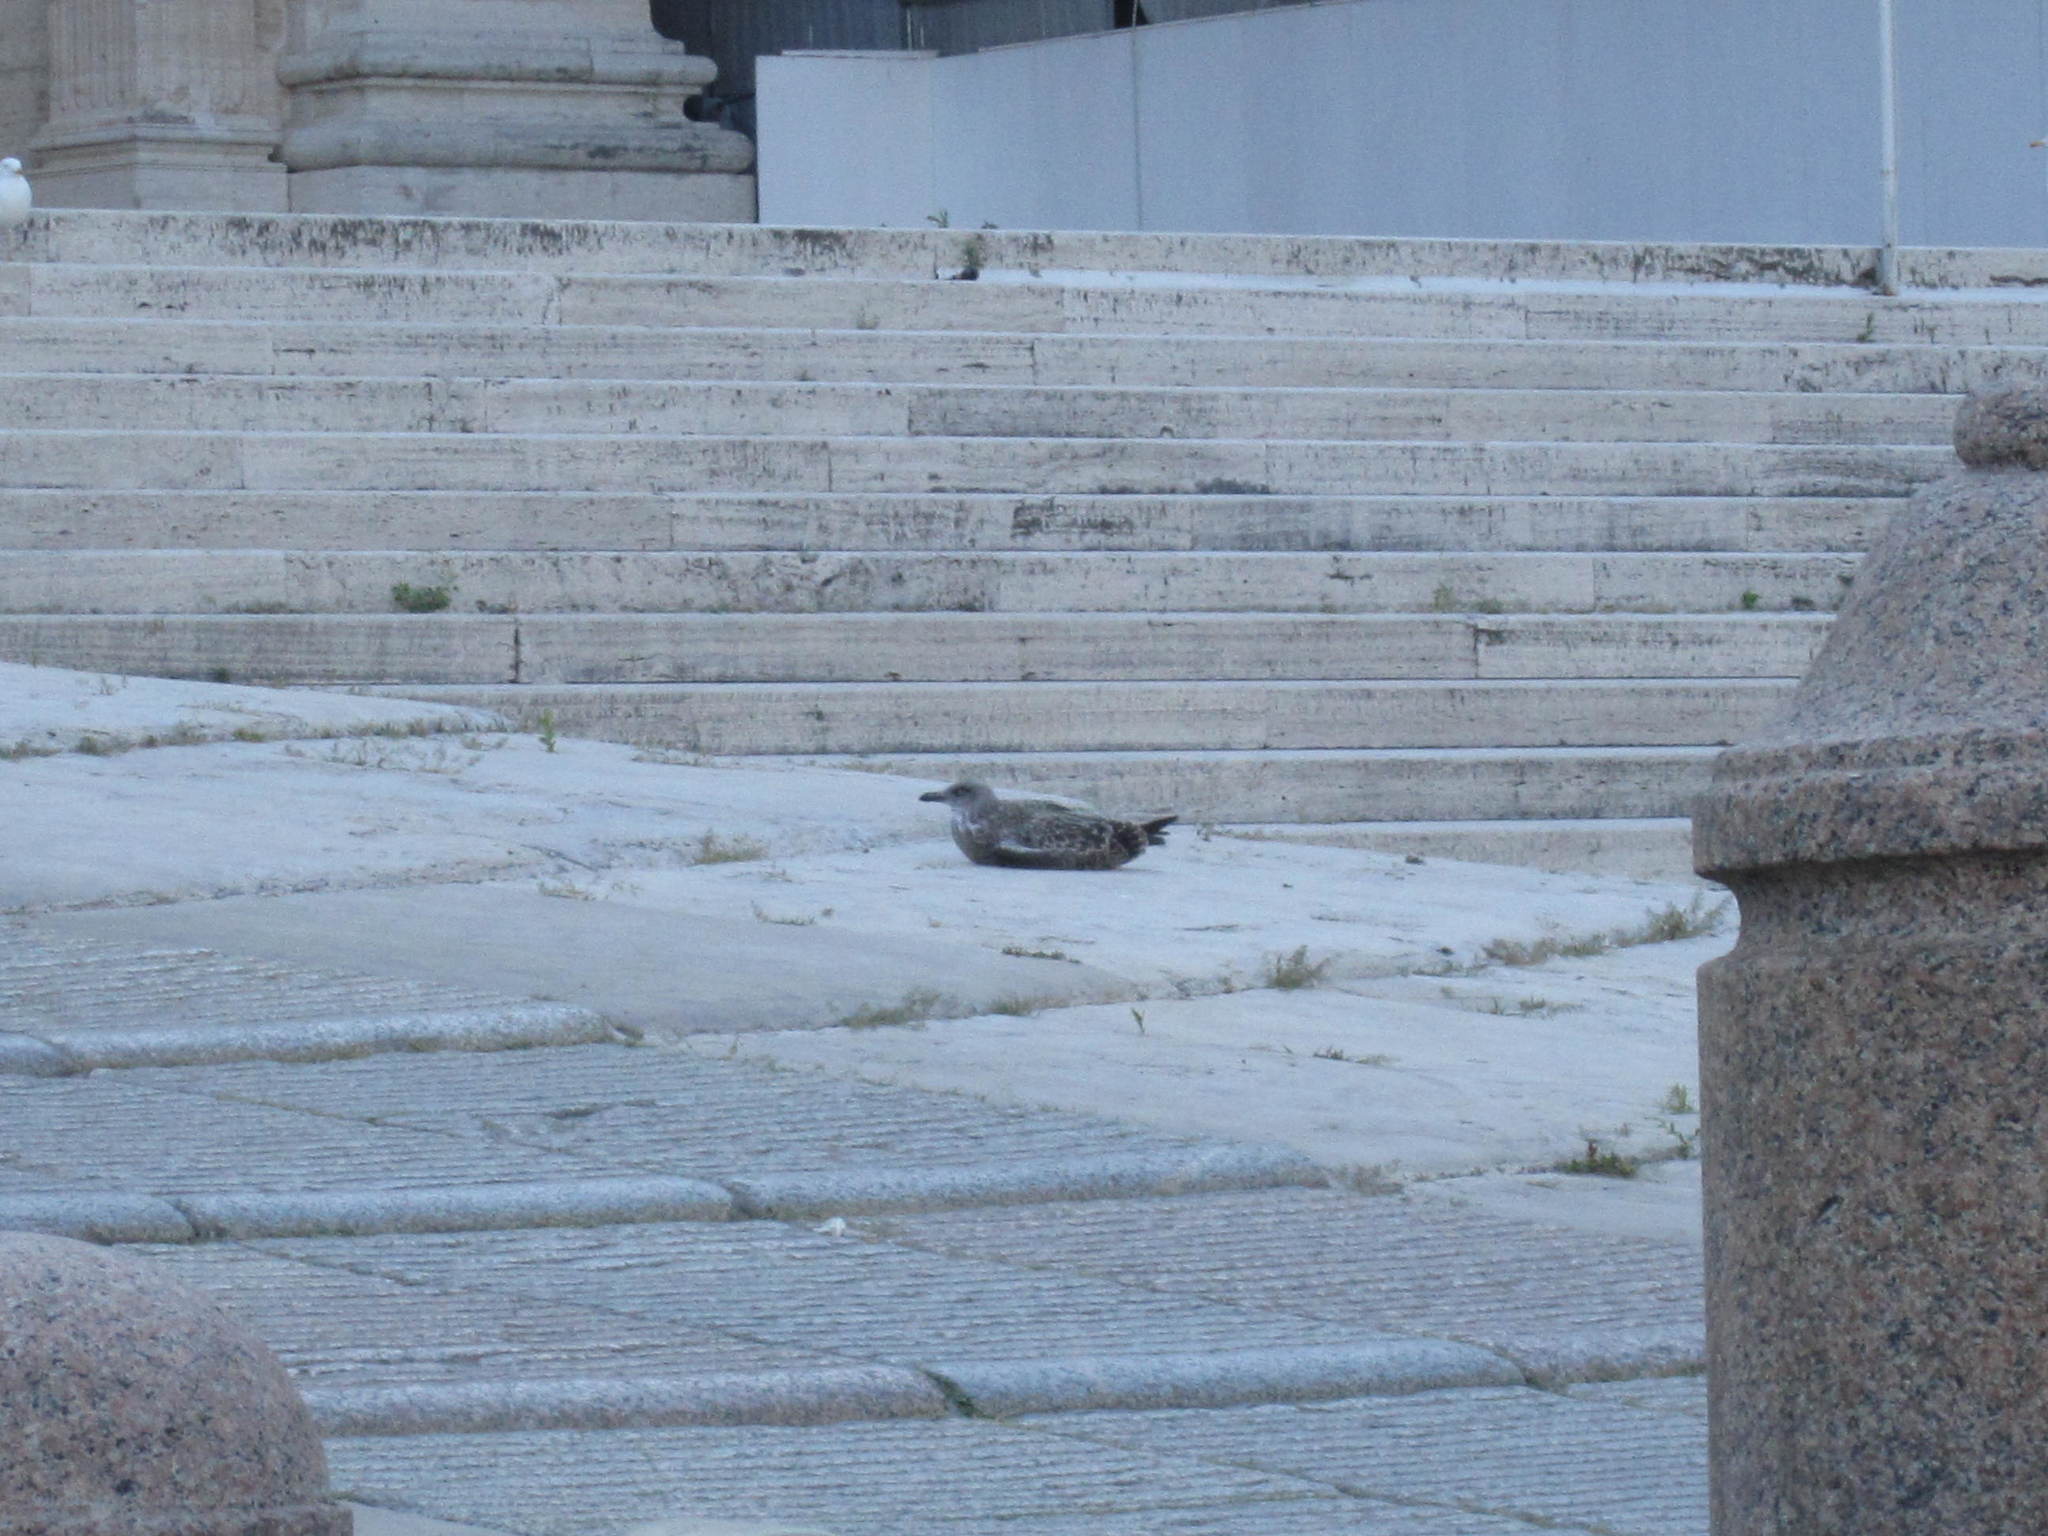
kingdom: Animalia
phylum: Chordata
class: Aves
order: Charadriiformes
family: Laridae
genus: Larus
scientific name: Larus michahellis
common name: Yellow-legged gull
